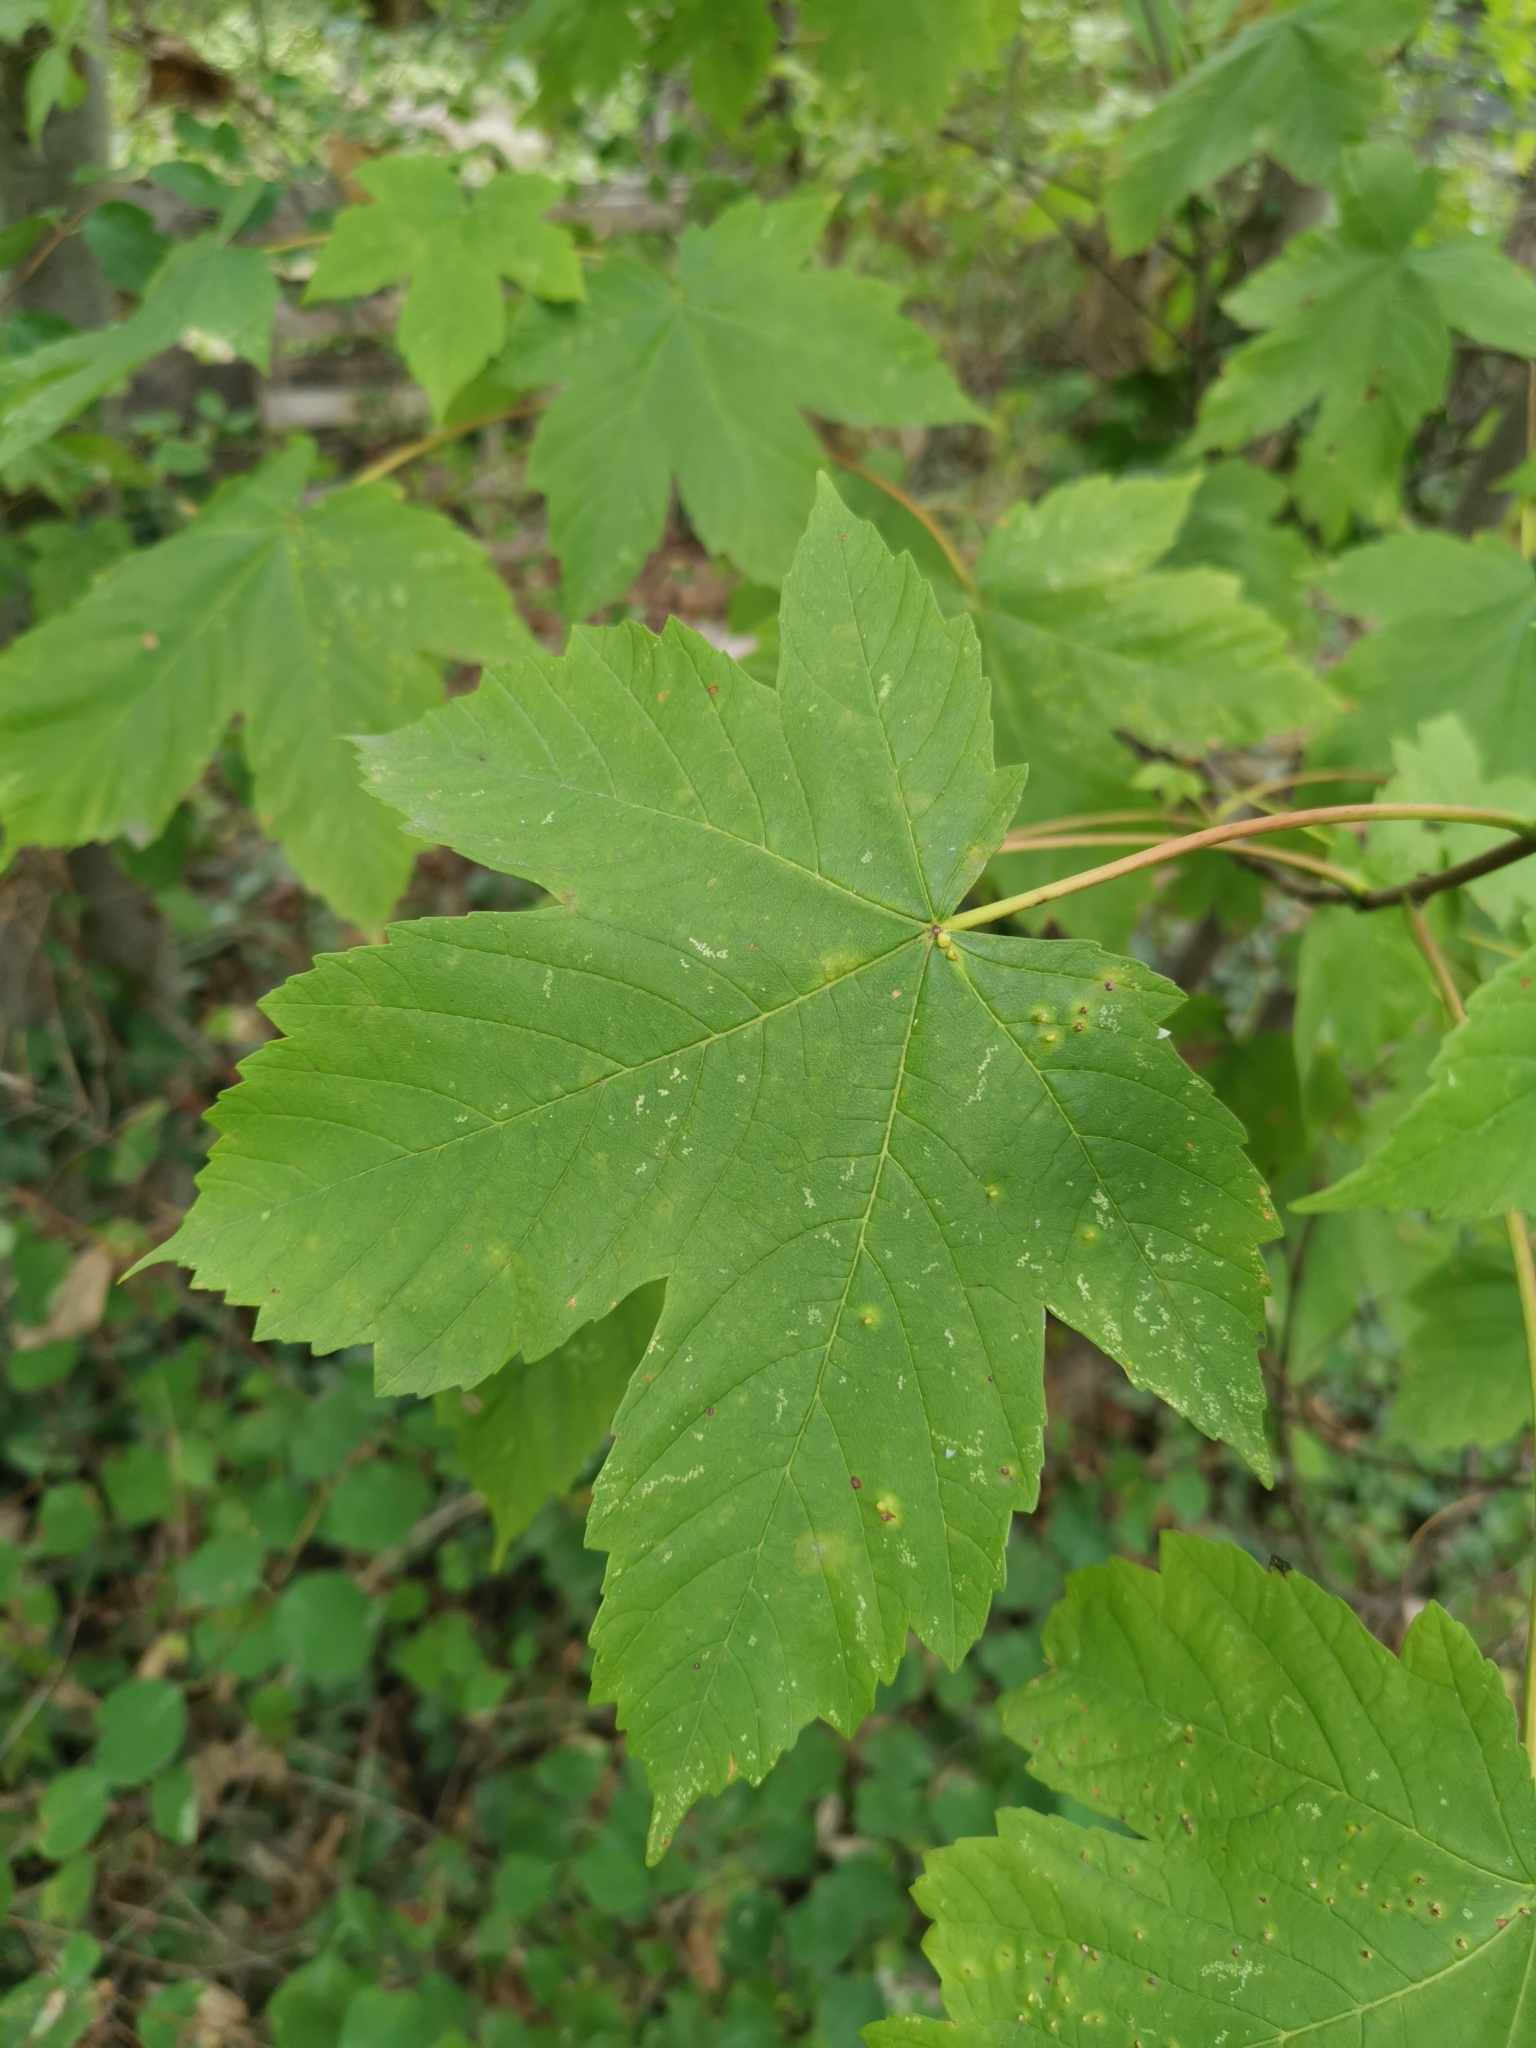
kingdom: Plantae
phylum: Tracheophyta
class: Magnoliopsida
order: Sapindales
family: Sapindaceae
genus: Acer
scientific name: Acer pseudoplatanus
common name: Sycamore
